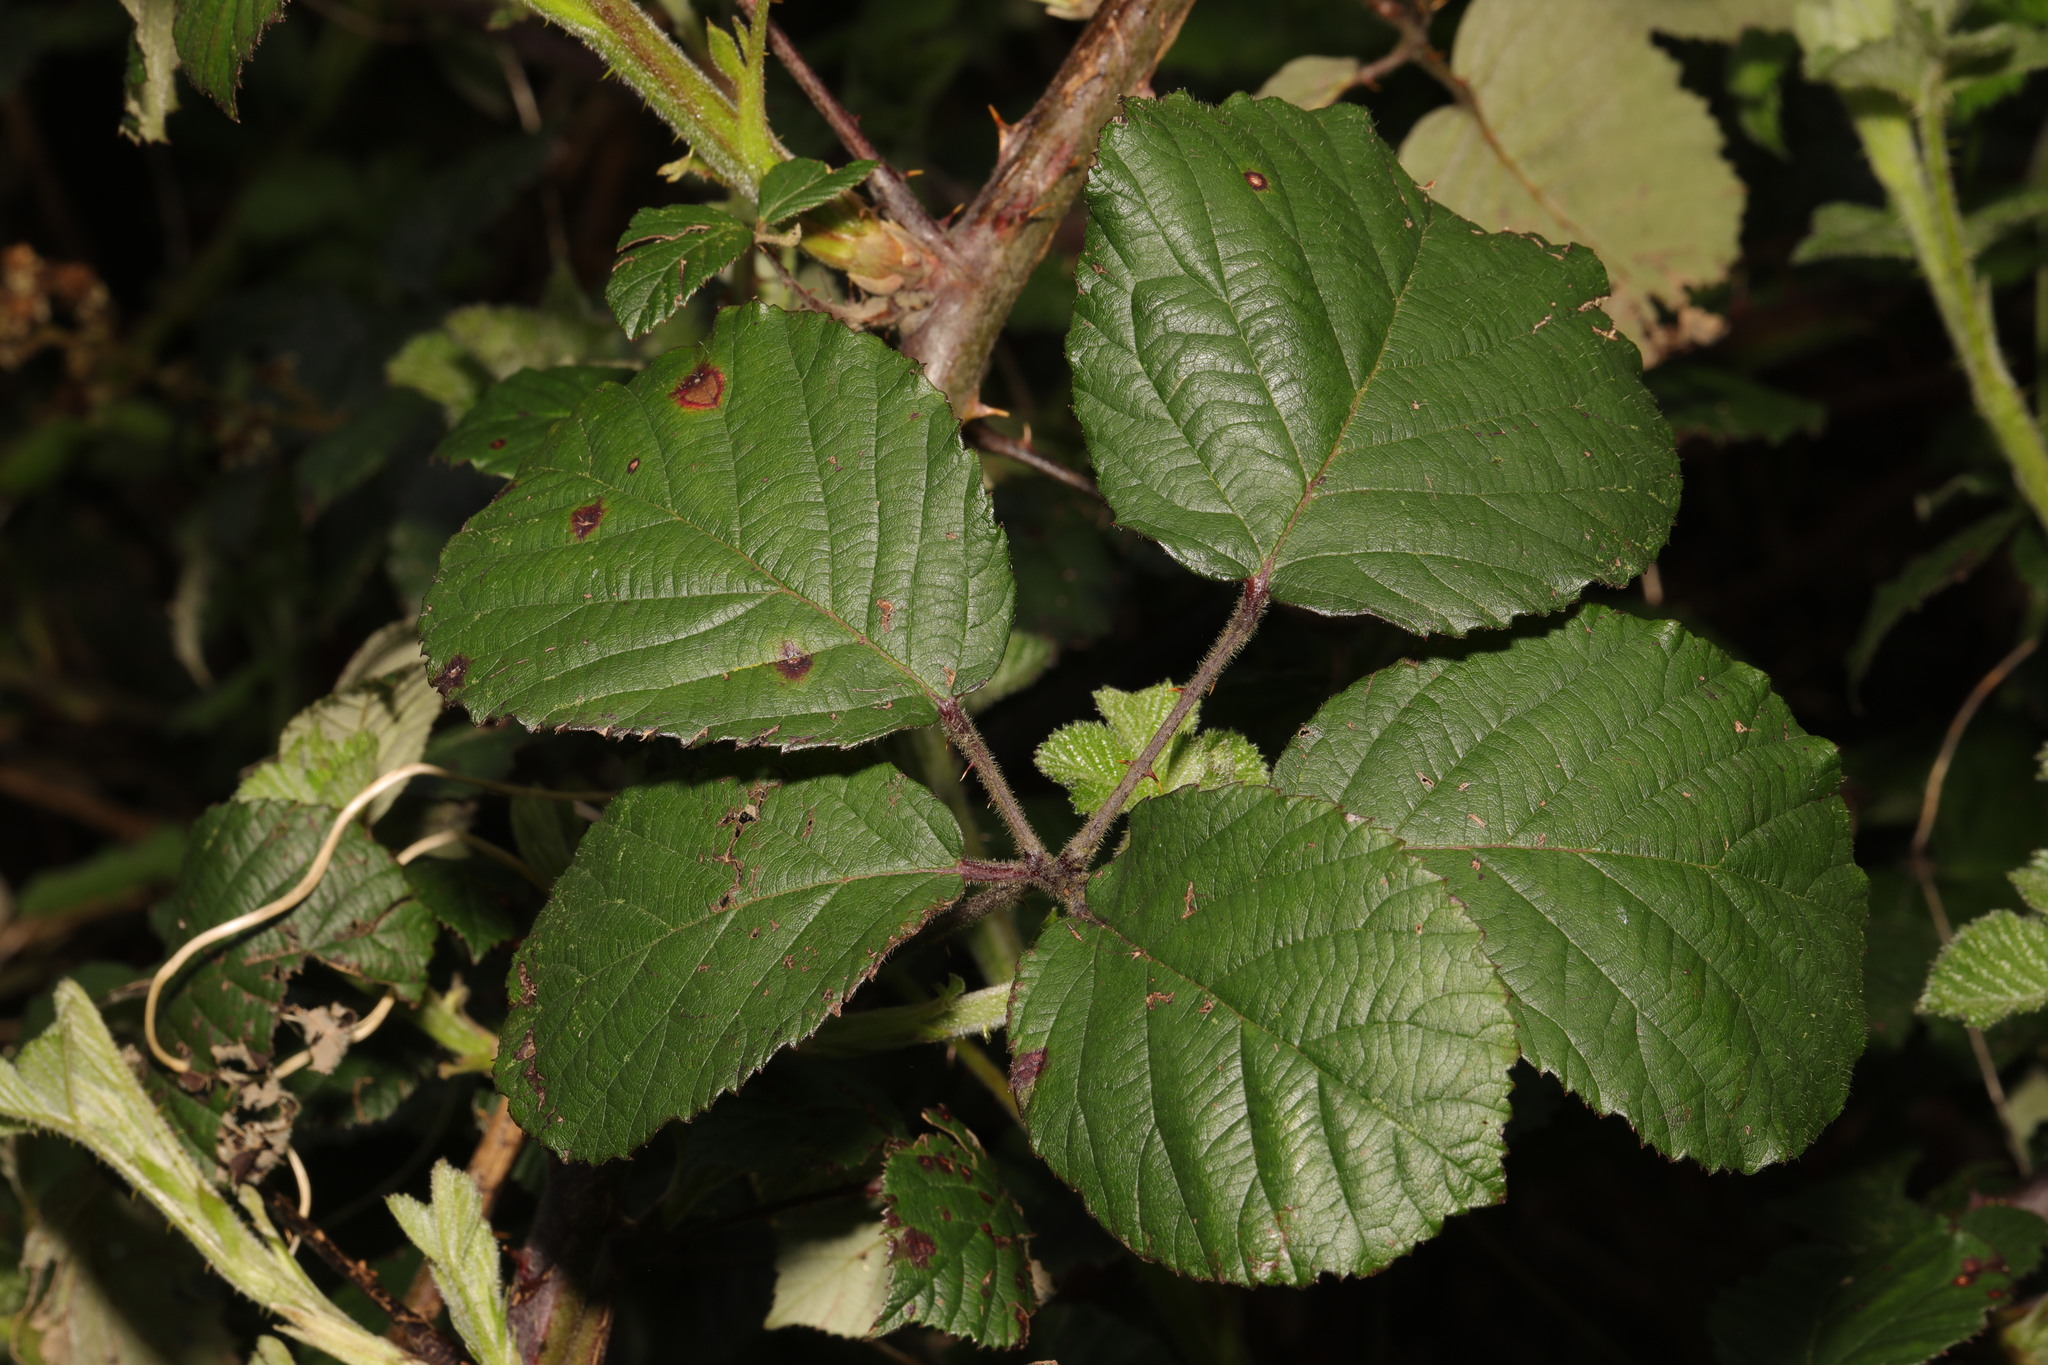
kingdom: Plantae
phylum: Tracheophyta
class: Magnoliopsida
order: Rosales
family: Rosaceae
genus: Rubus
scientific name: Rubus vestitus
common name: European blackberry
